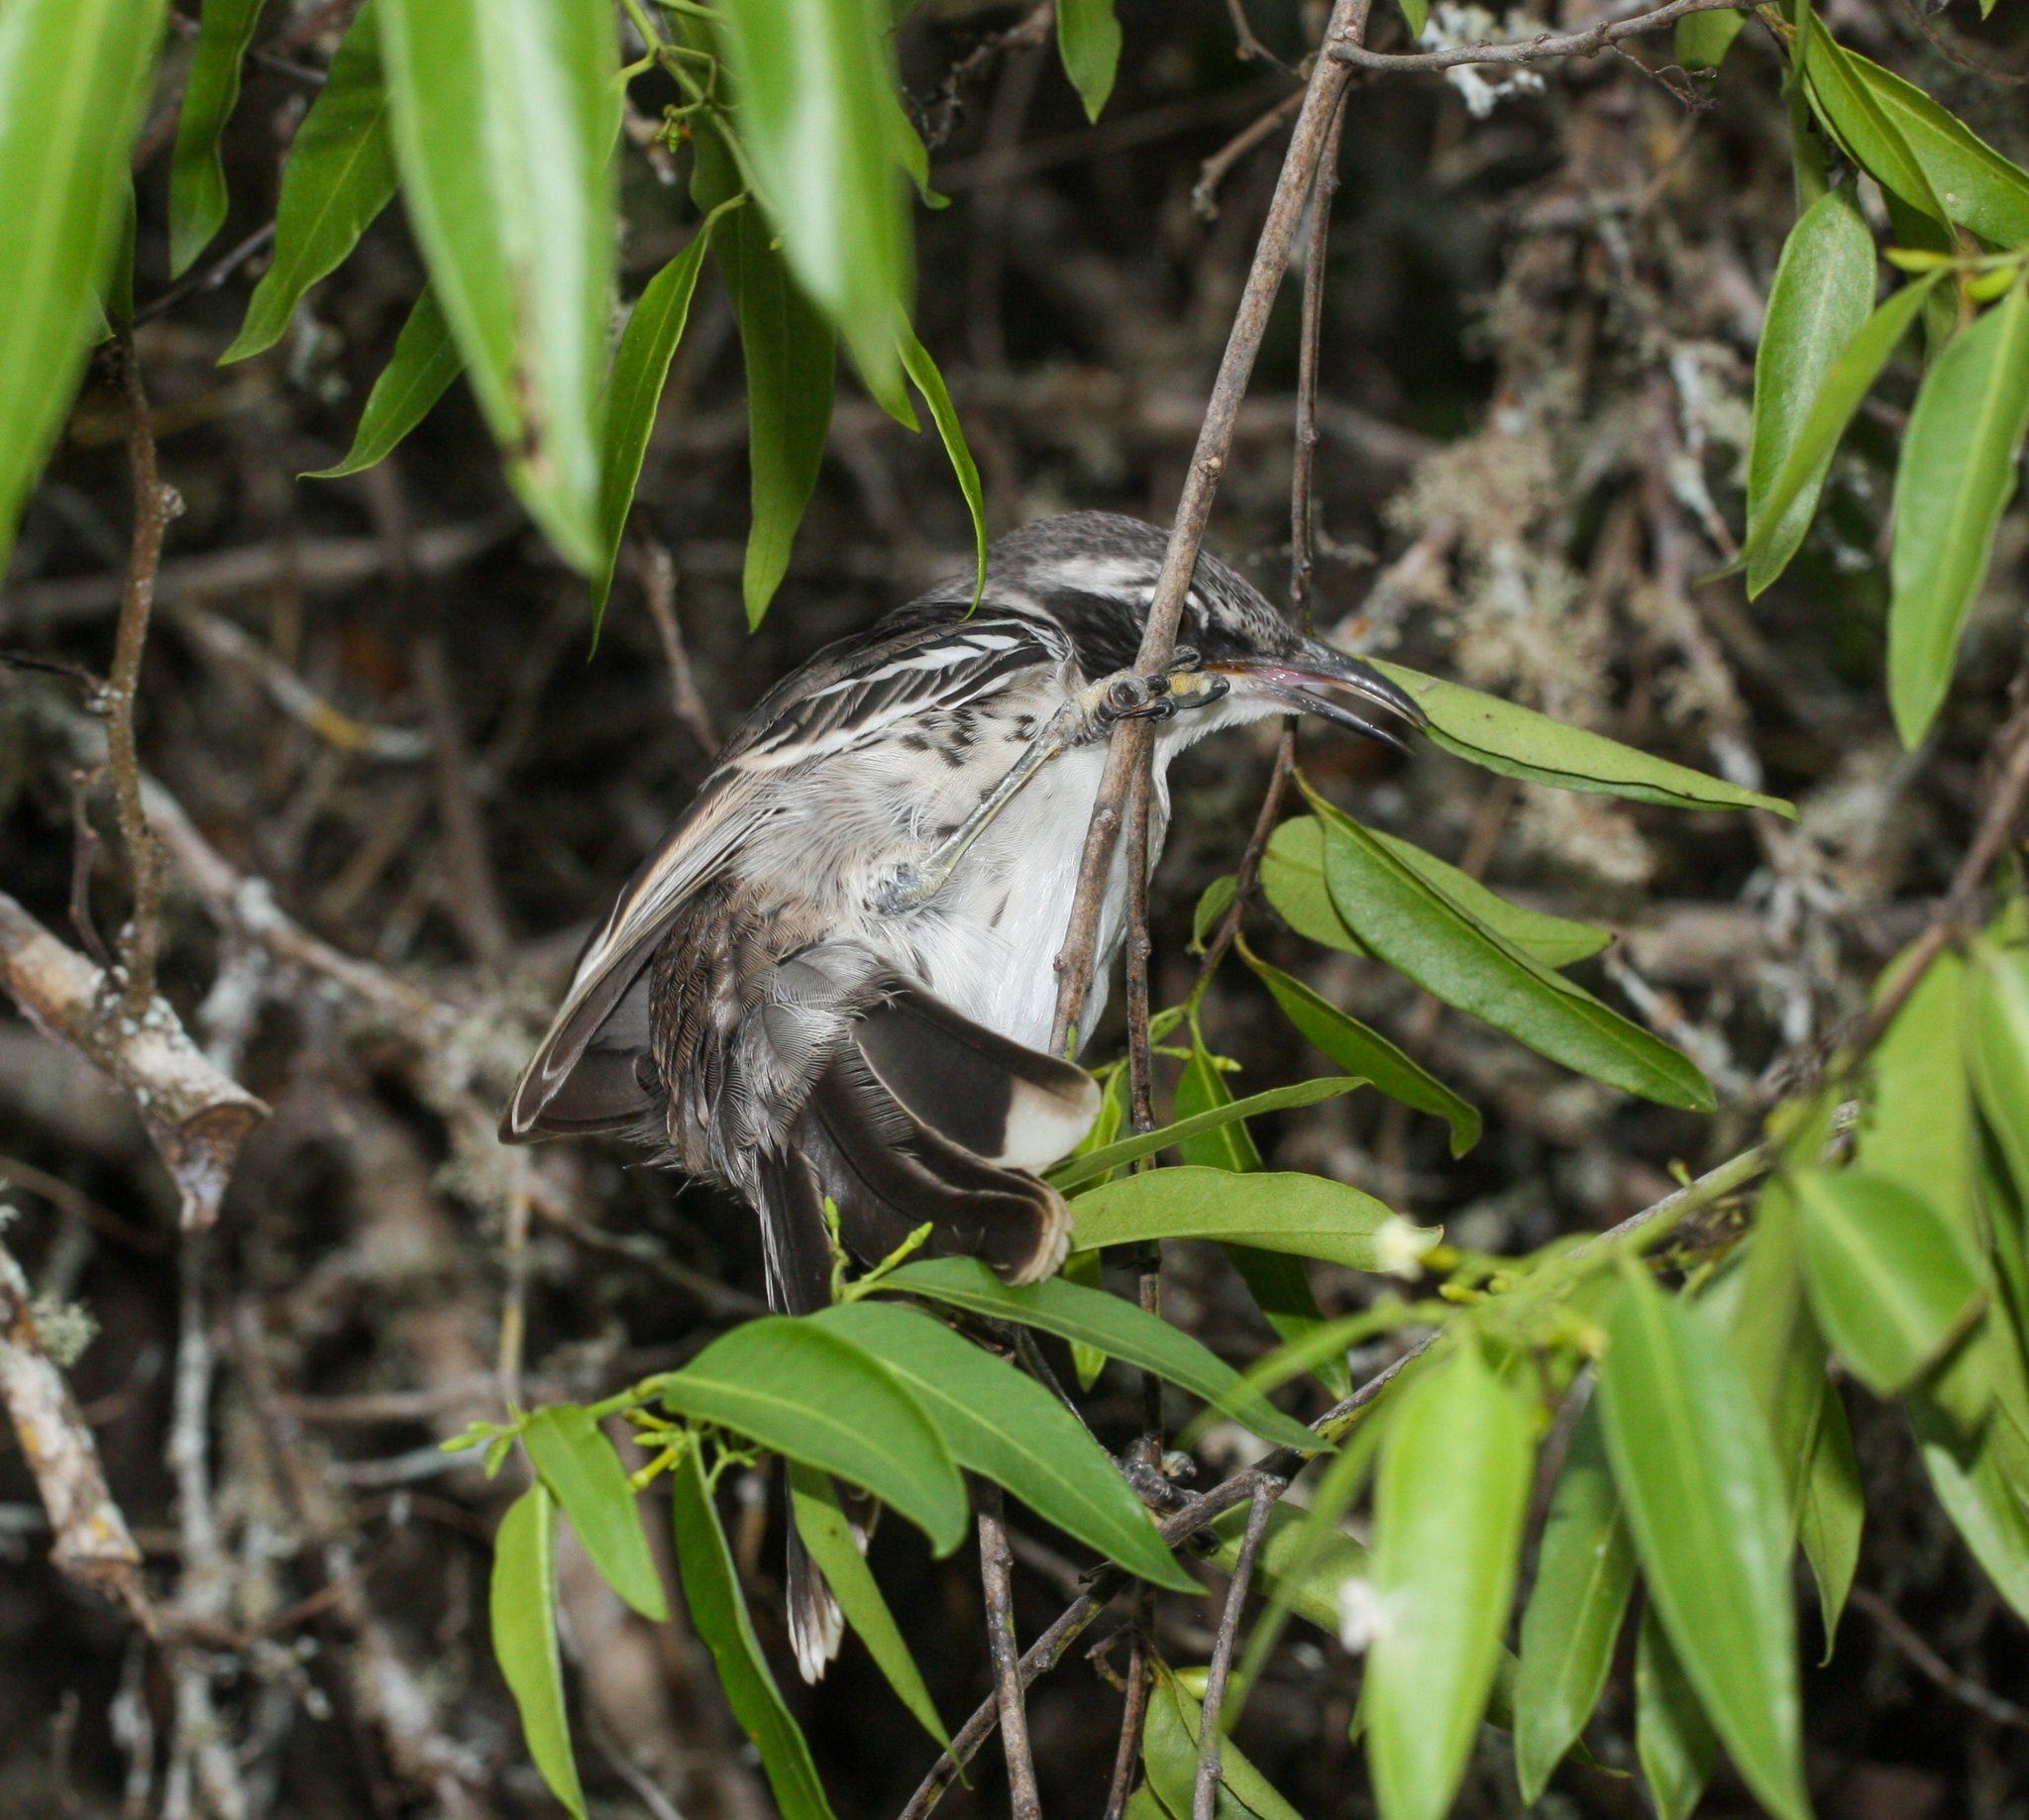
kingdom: Animalia
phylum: Chordata
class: Aves
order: Passeriformes
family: Mimidae
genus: Mimus
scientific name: Mimus parvulus
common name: Galapagos mockingbird
